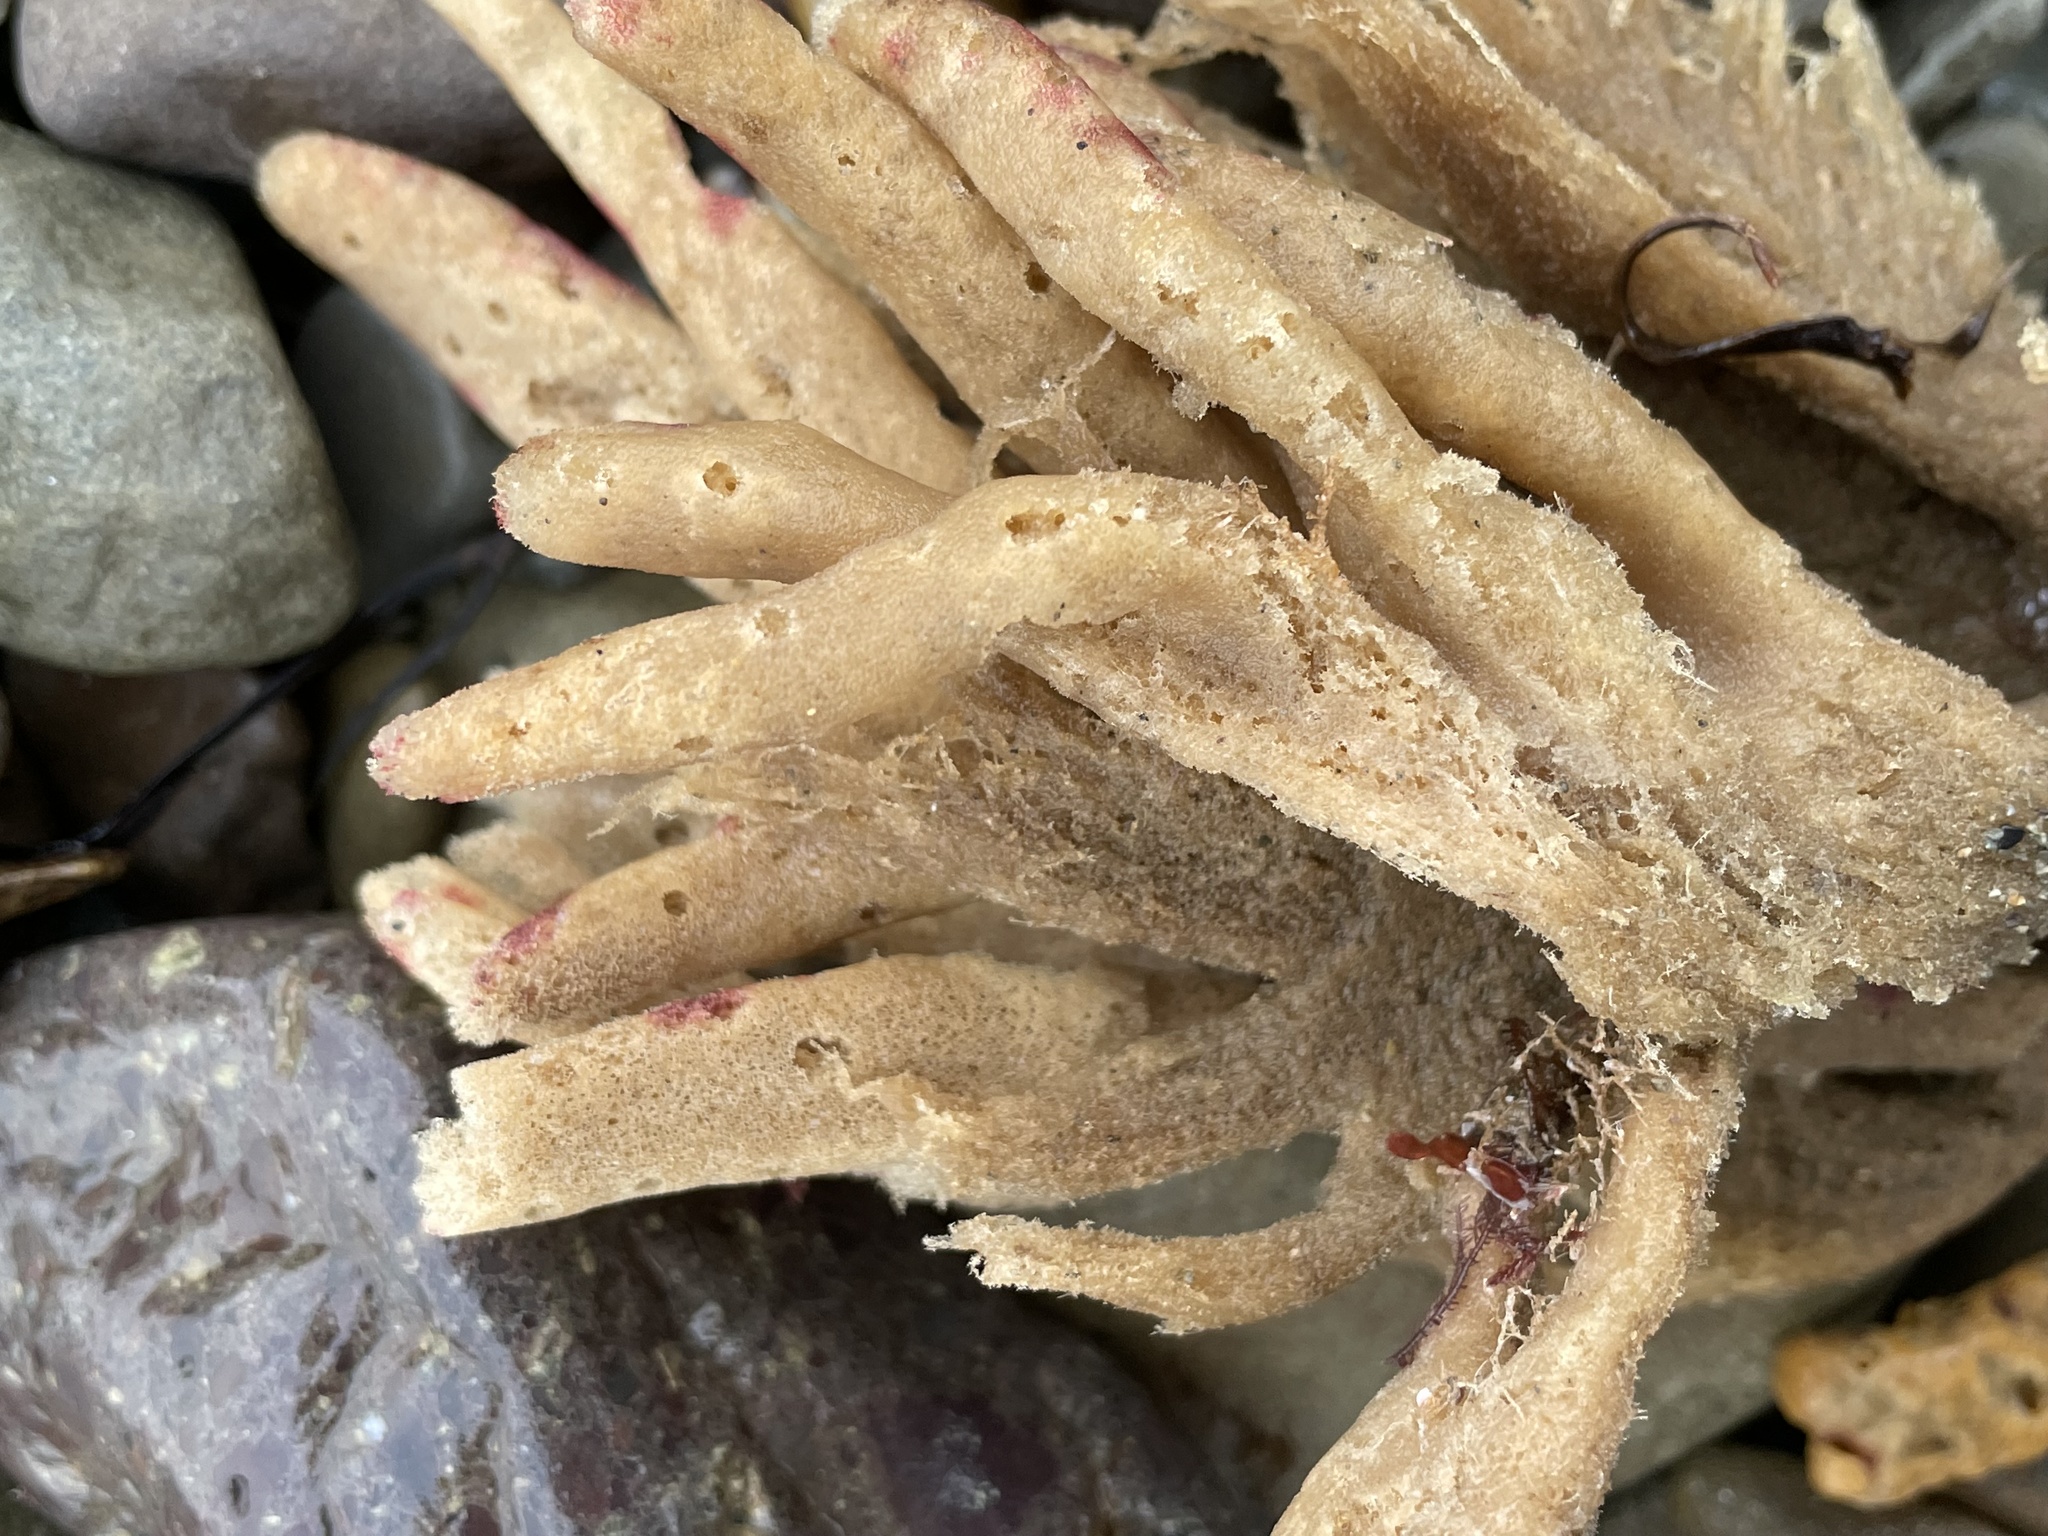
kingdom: Animalia
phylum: Porifera
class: Demospongiae
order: Haplosclerida
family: Chalinidae
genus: Haliclona
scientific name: Haliclona oculata
